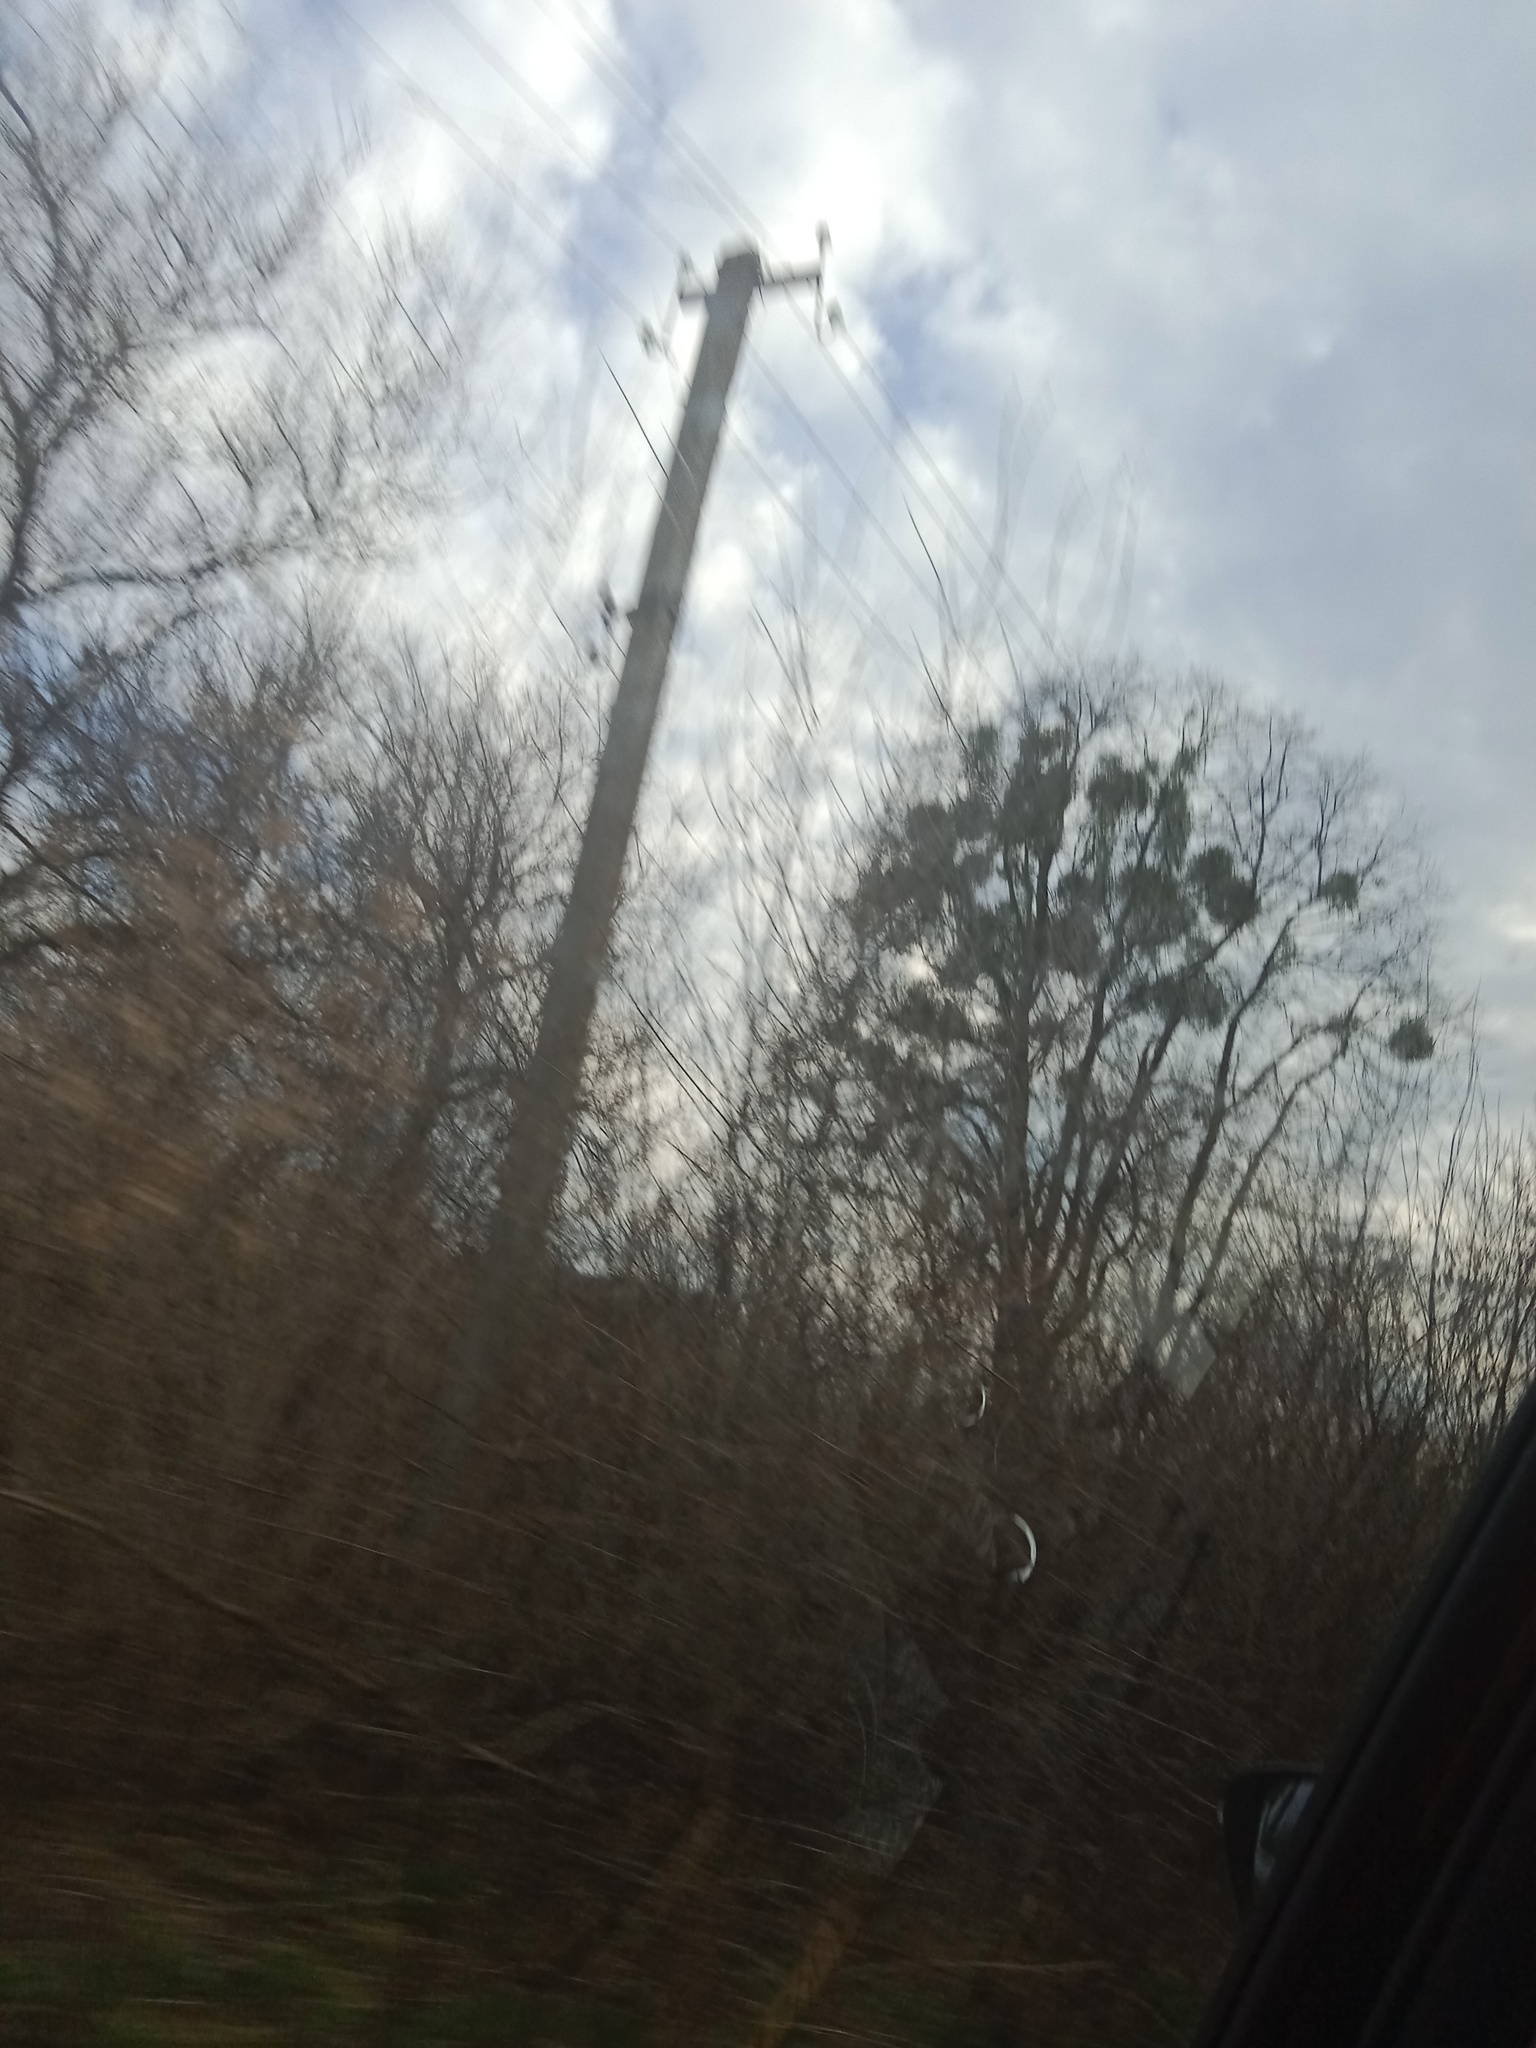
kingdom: Plantae
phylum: Tracheophyta
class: Magnoliopsida
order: Santalales
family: Viscaceae
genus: Viscum
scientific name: Viscum album
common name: Mistletoe
